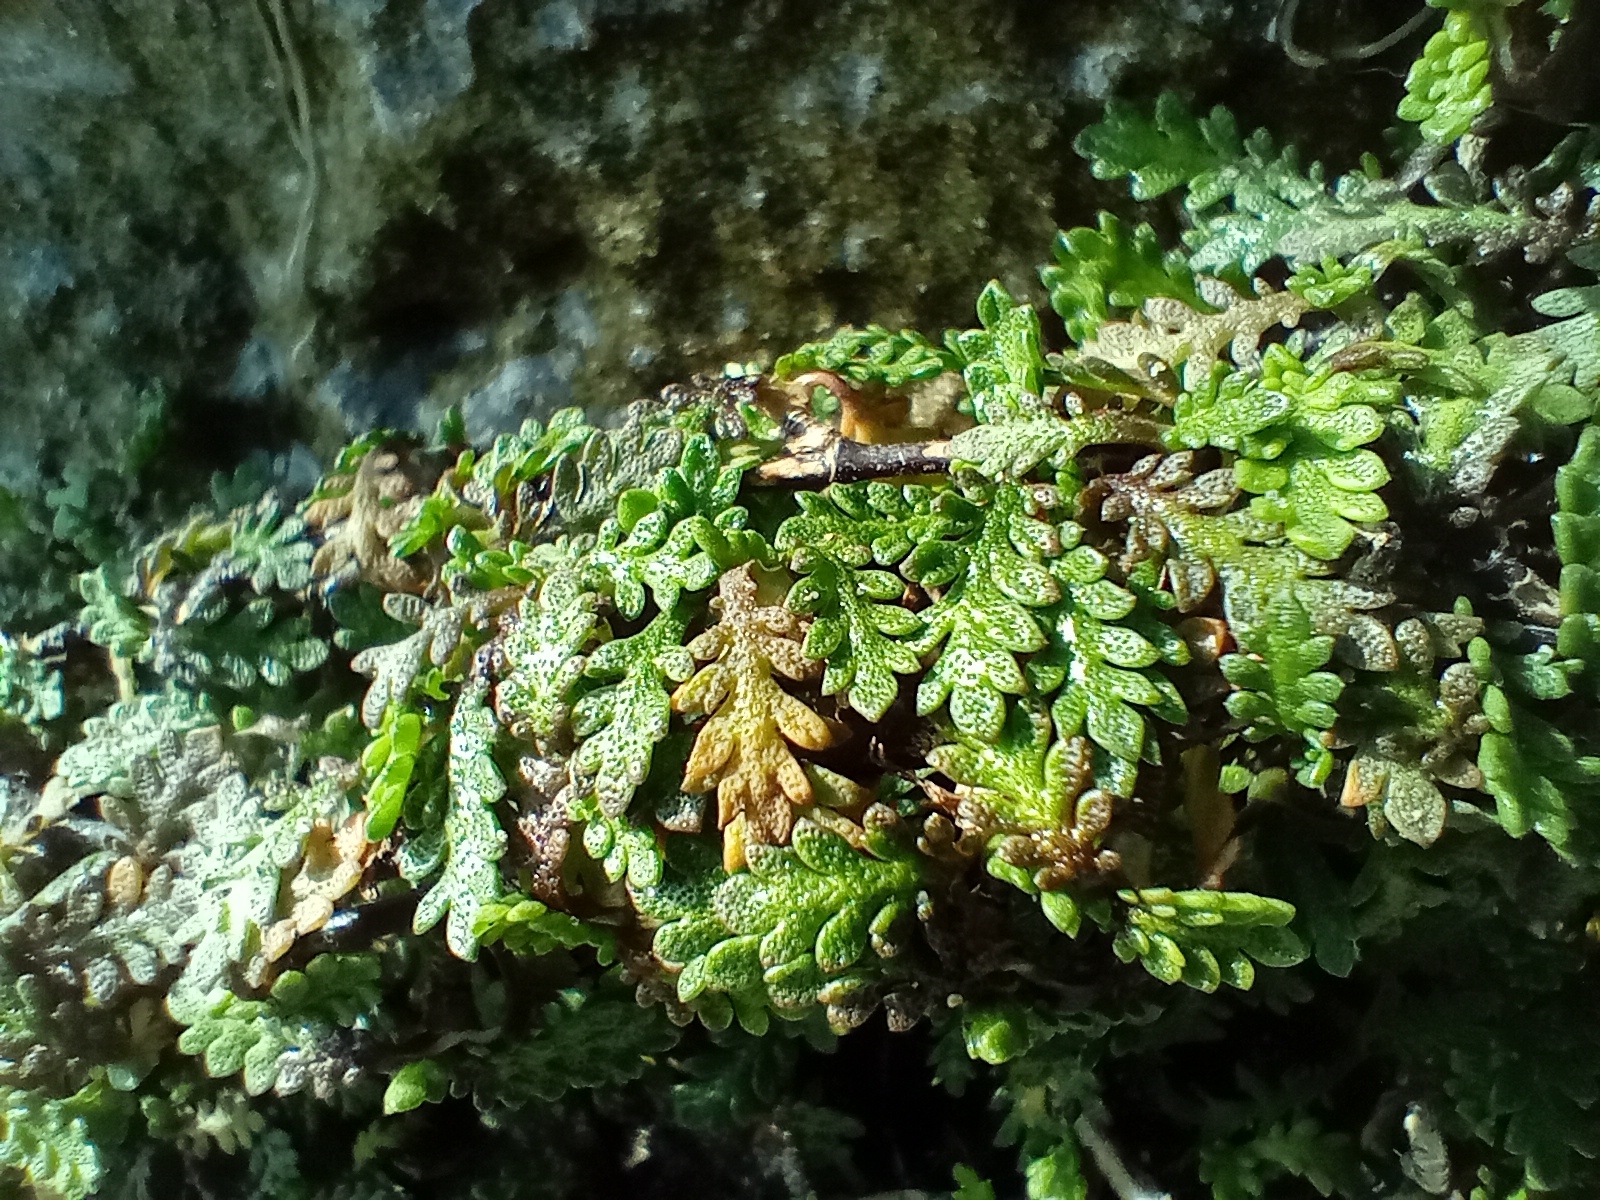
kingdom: Plantae
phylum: Tracheophyta
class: Magnoliopsida
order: Asterales
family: Asteraceae
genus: Leptinella
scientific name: Leptinella dioica
